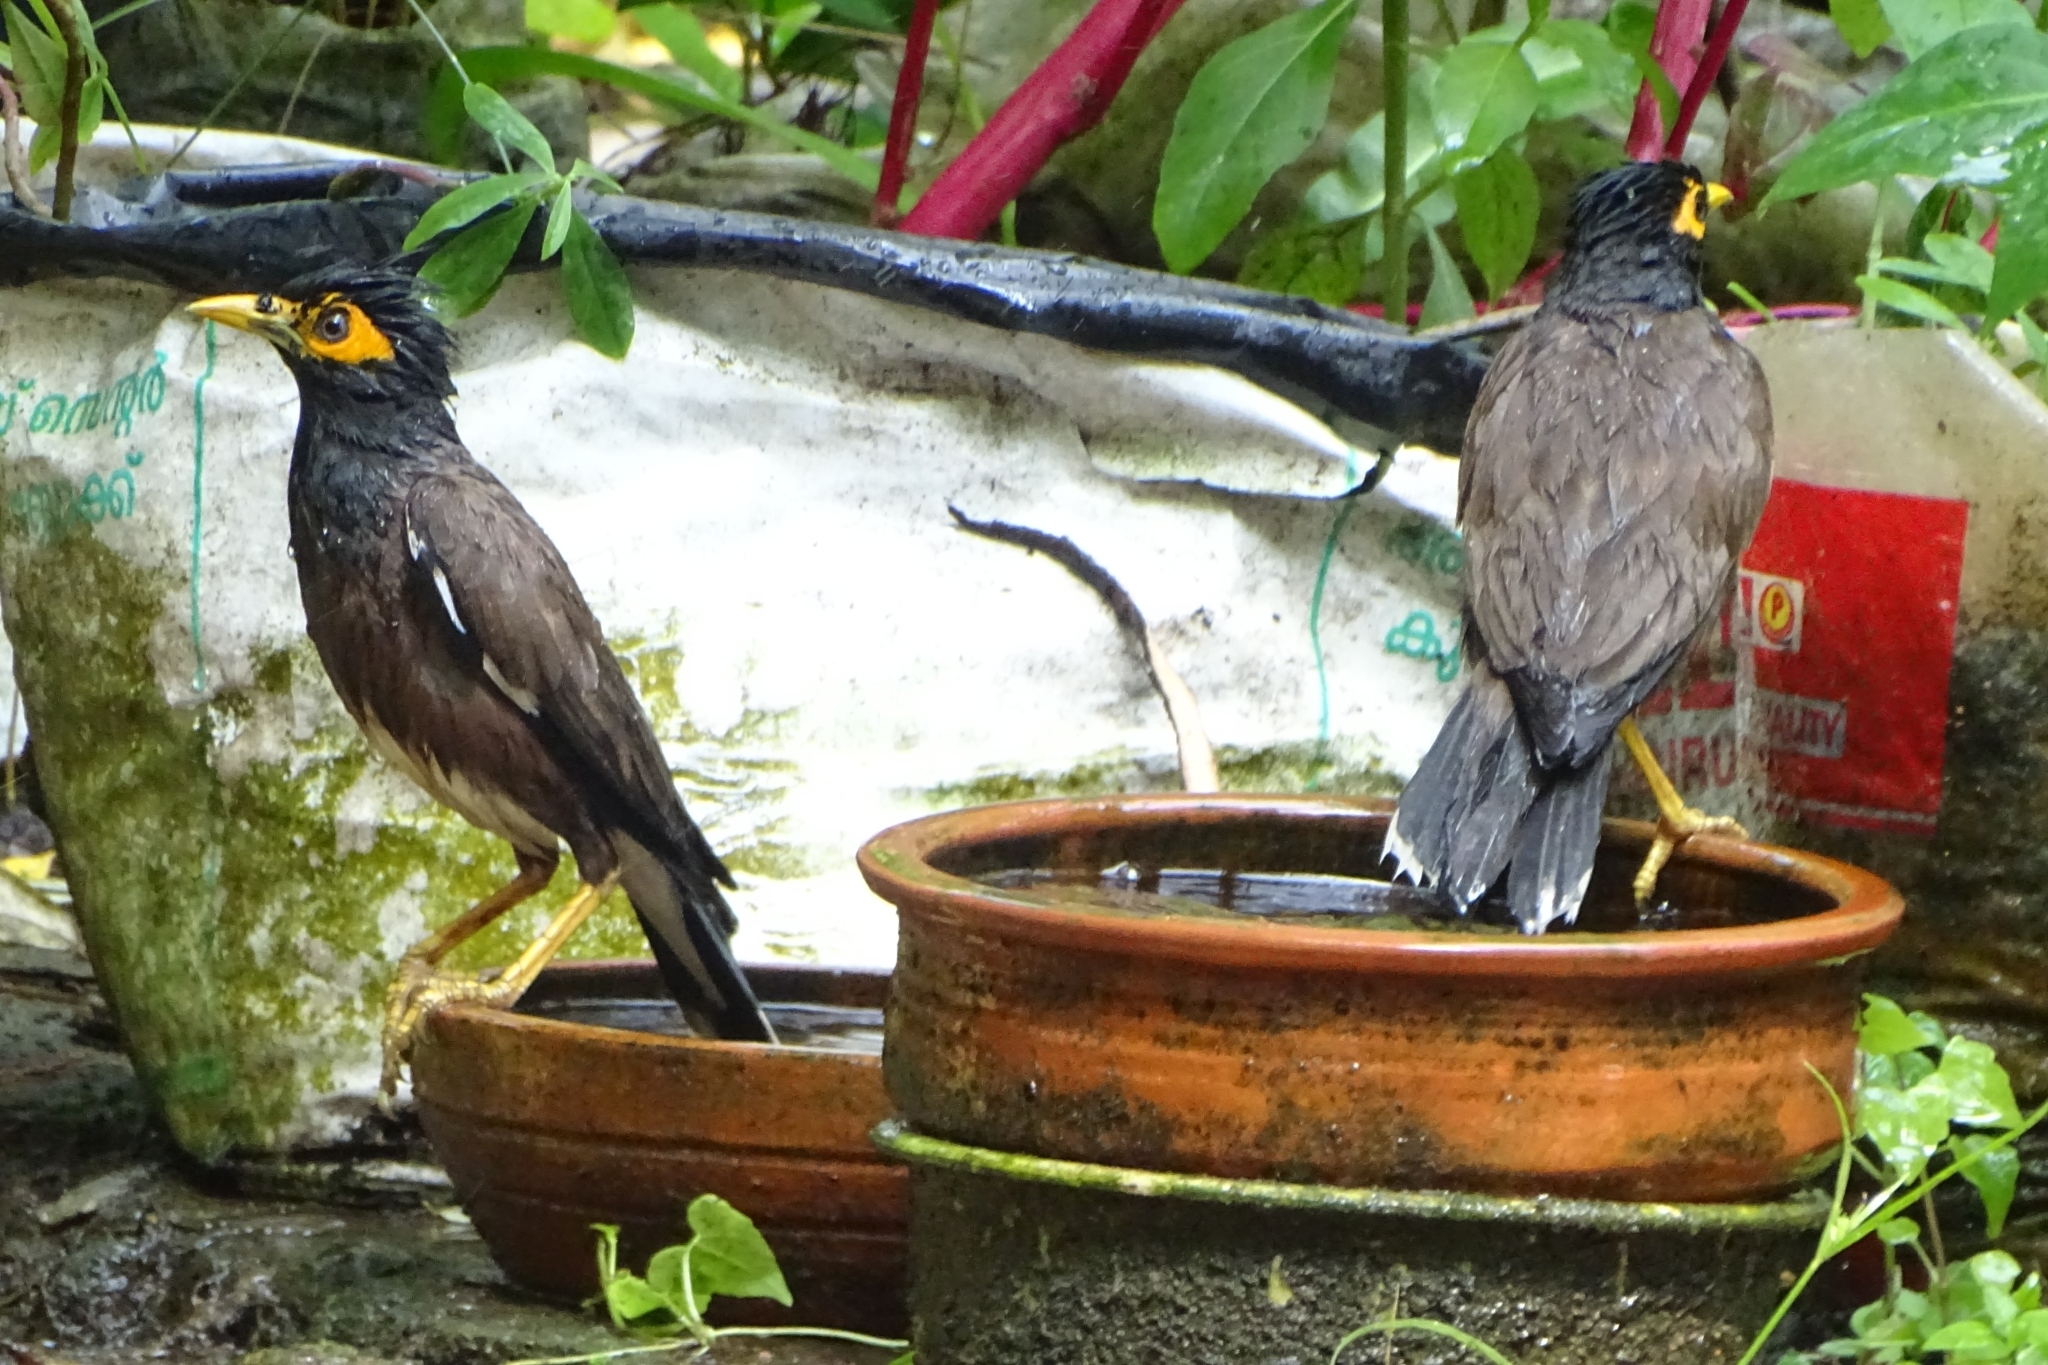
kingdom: Animalia
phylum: Chordata
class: Aves
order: Passeriformes
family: Sturnidae
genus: Acridotheres
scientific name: Acridotheres tristis
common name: Common myna
